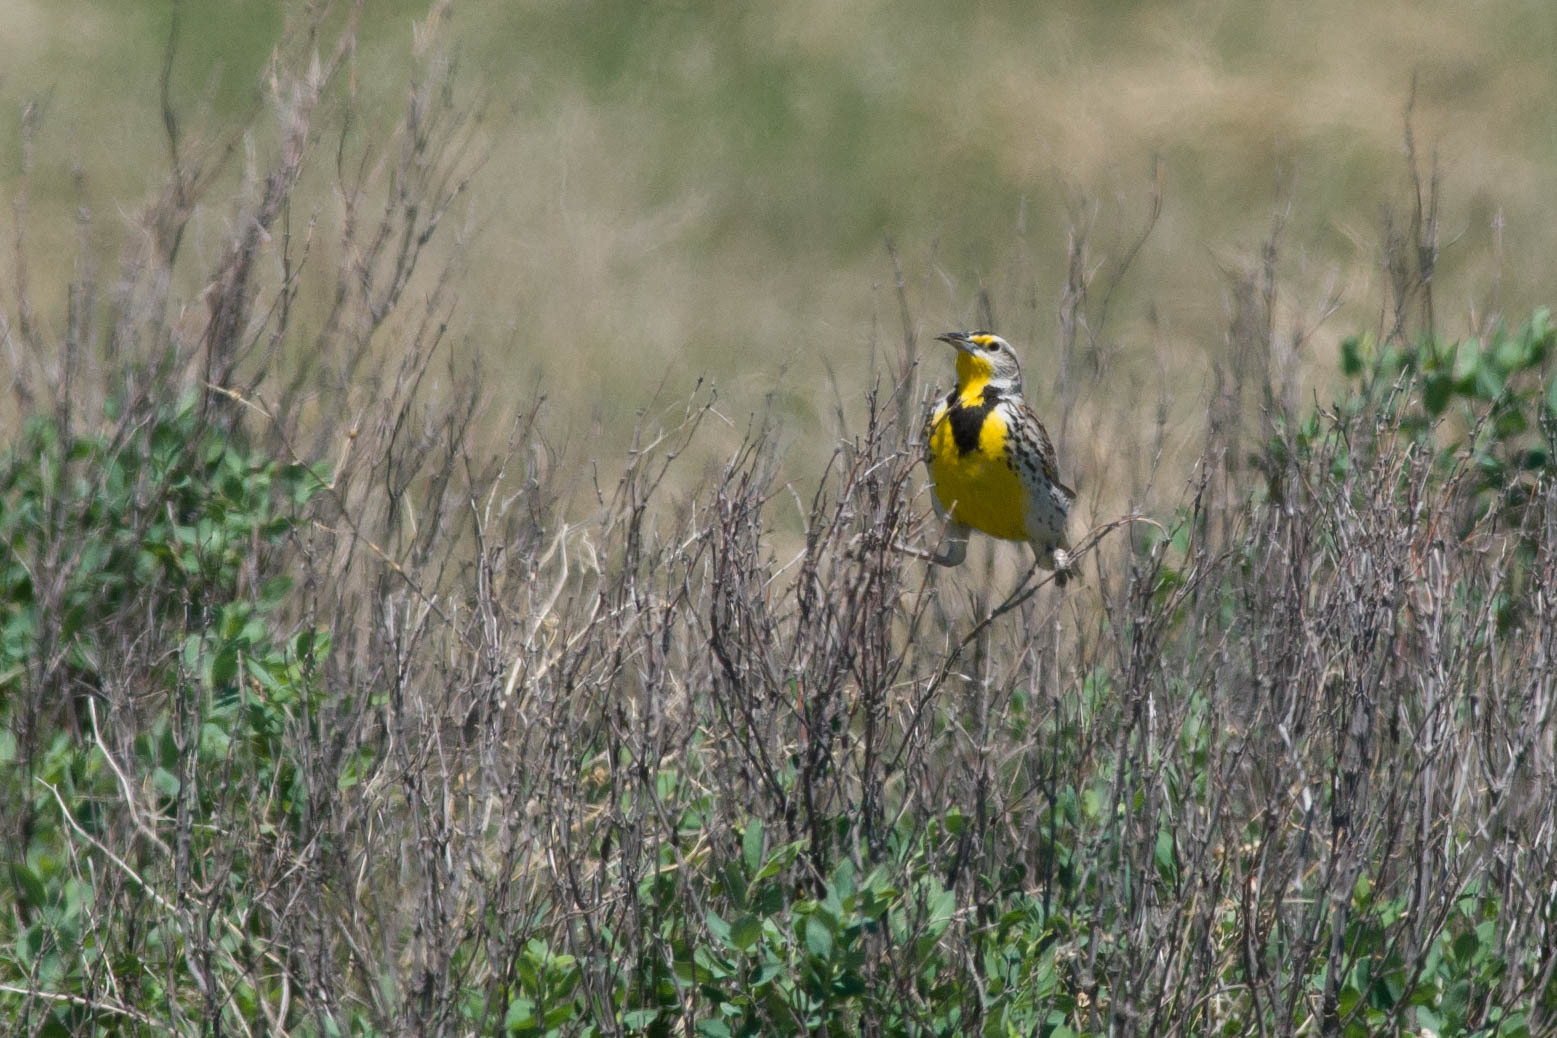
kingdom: Animalia
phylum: Chordata
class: Aves
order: Passeriformes
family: Icteridae
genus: Sturnella
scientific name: Sturnella neglecta
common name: Western meadowlark
